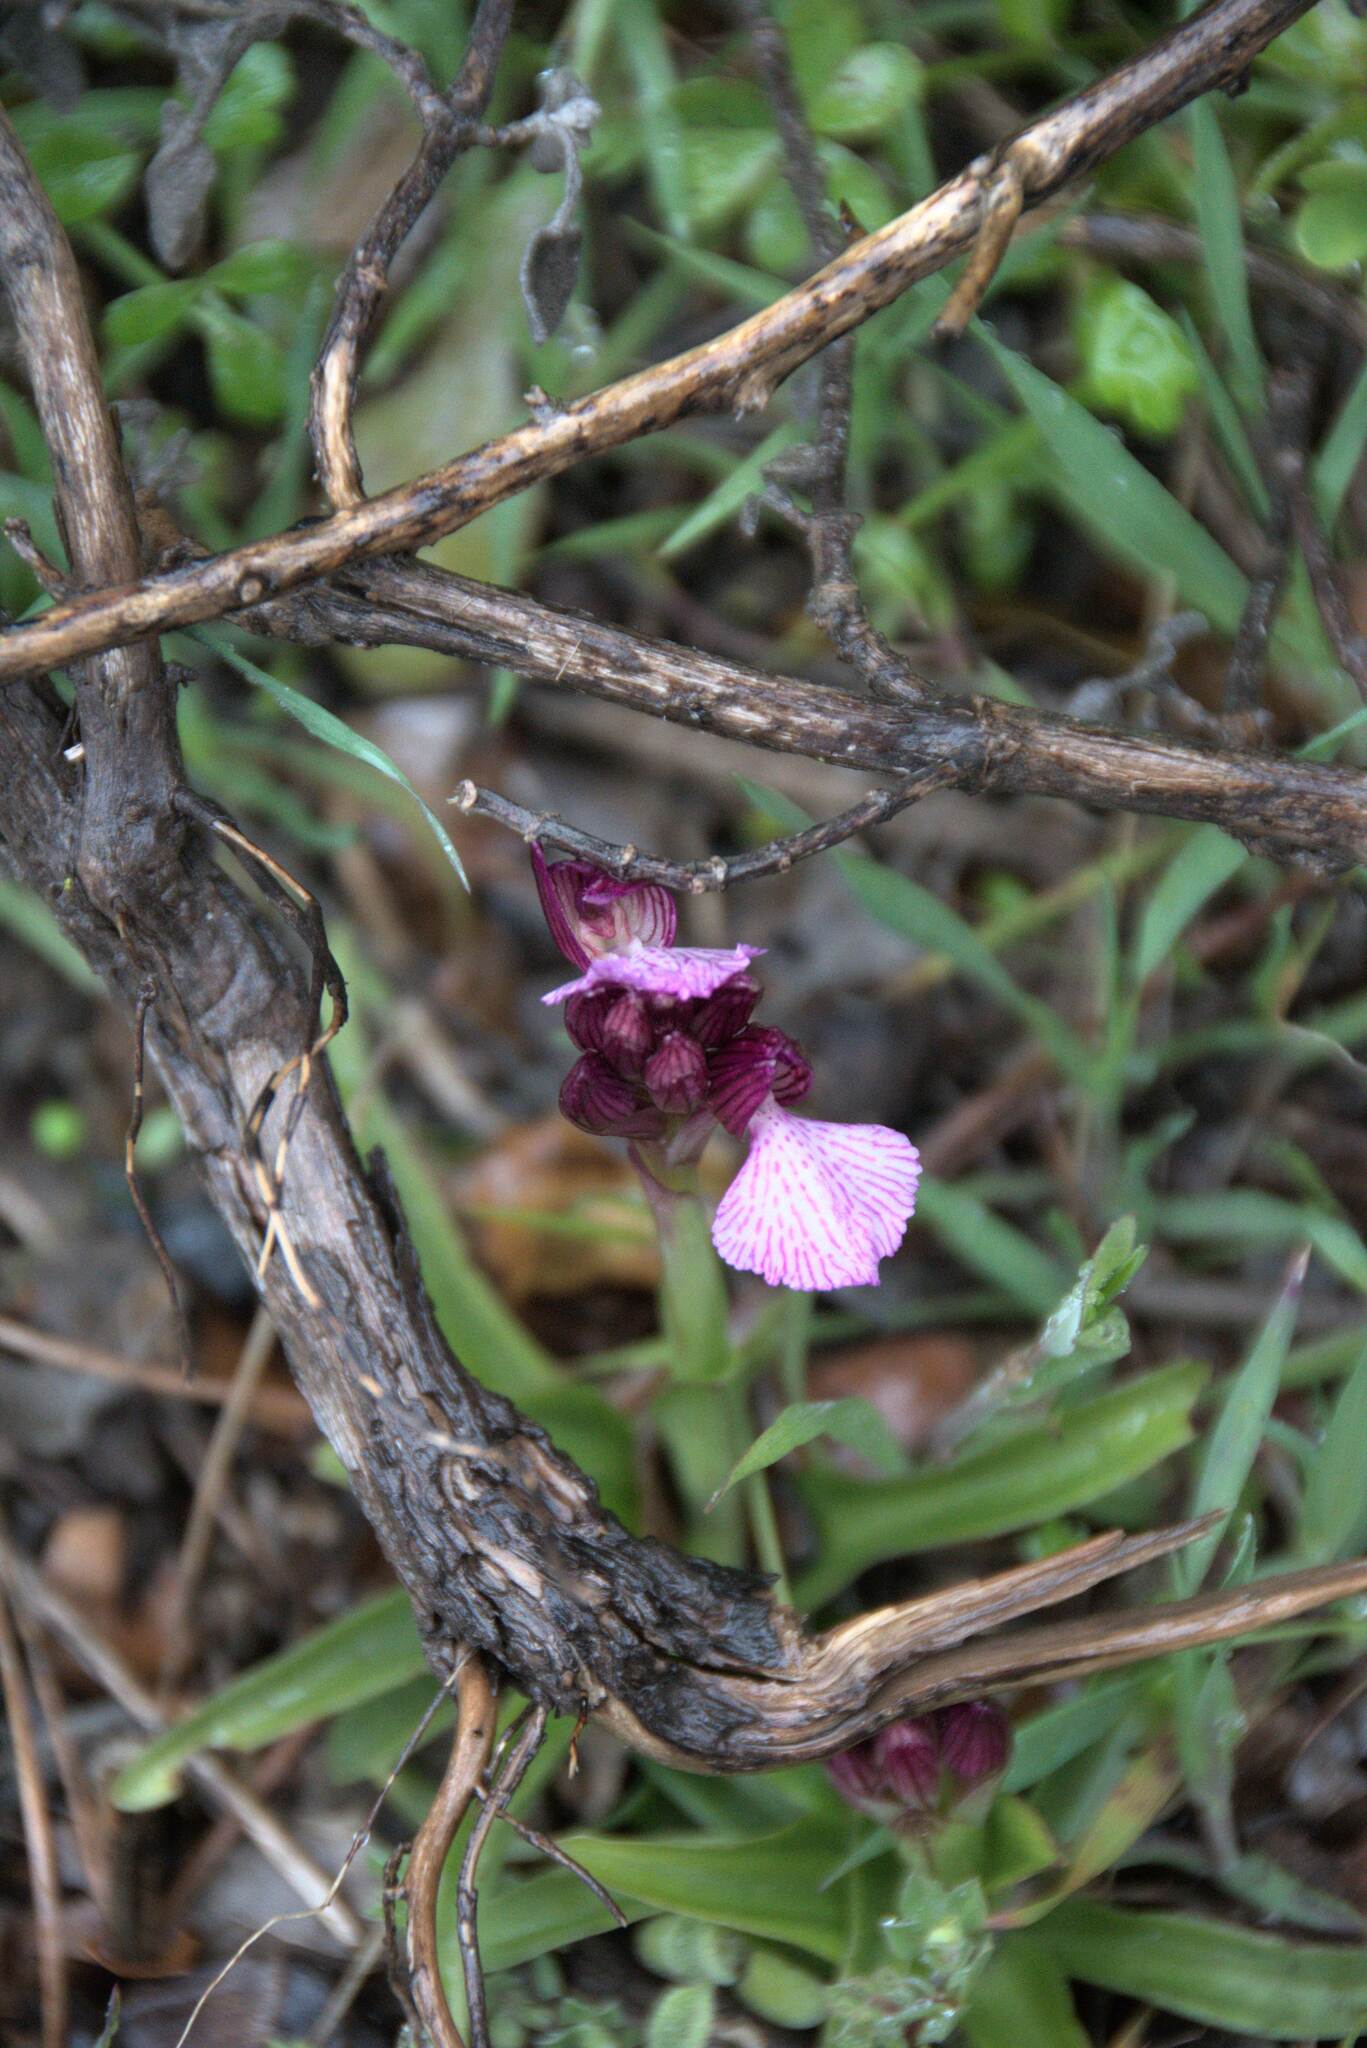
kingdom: Plantae
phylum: Tracheophyta
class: Liliopsida
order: Asparagales
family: Orchidaceae
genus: Anacamptis
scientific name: Anacamptis papilionacea
